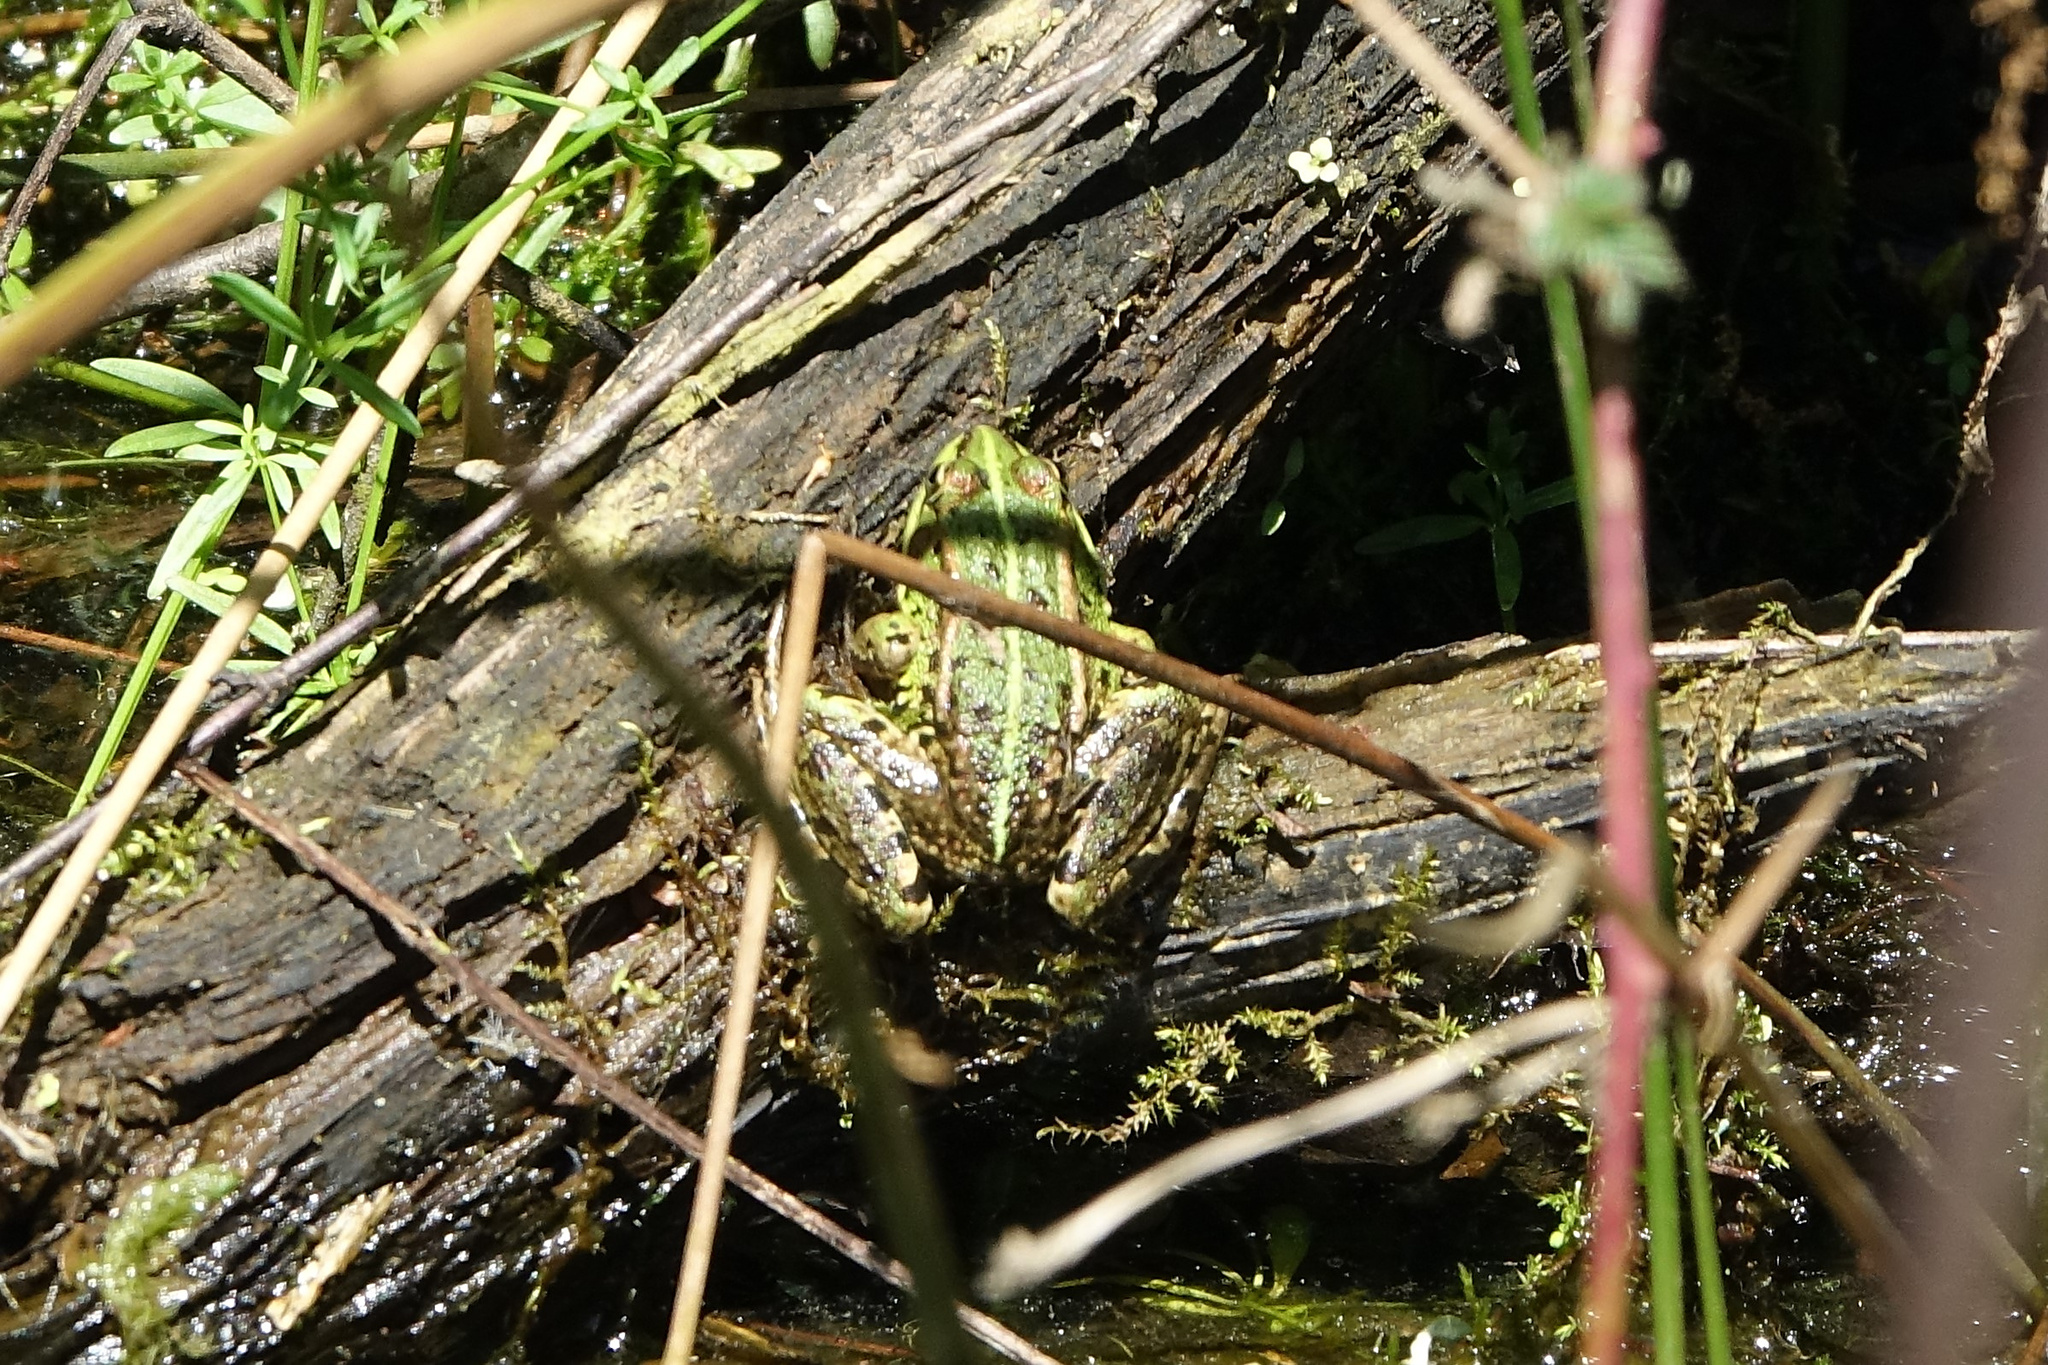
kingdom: Animalia
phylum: Chordata
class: Amphibia
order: Anura
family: Ranidae
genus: Pelophylax
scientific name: Pelophylax perezi
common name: Perez's frog
